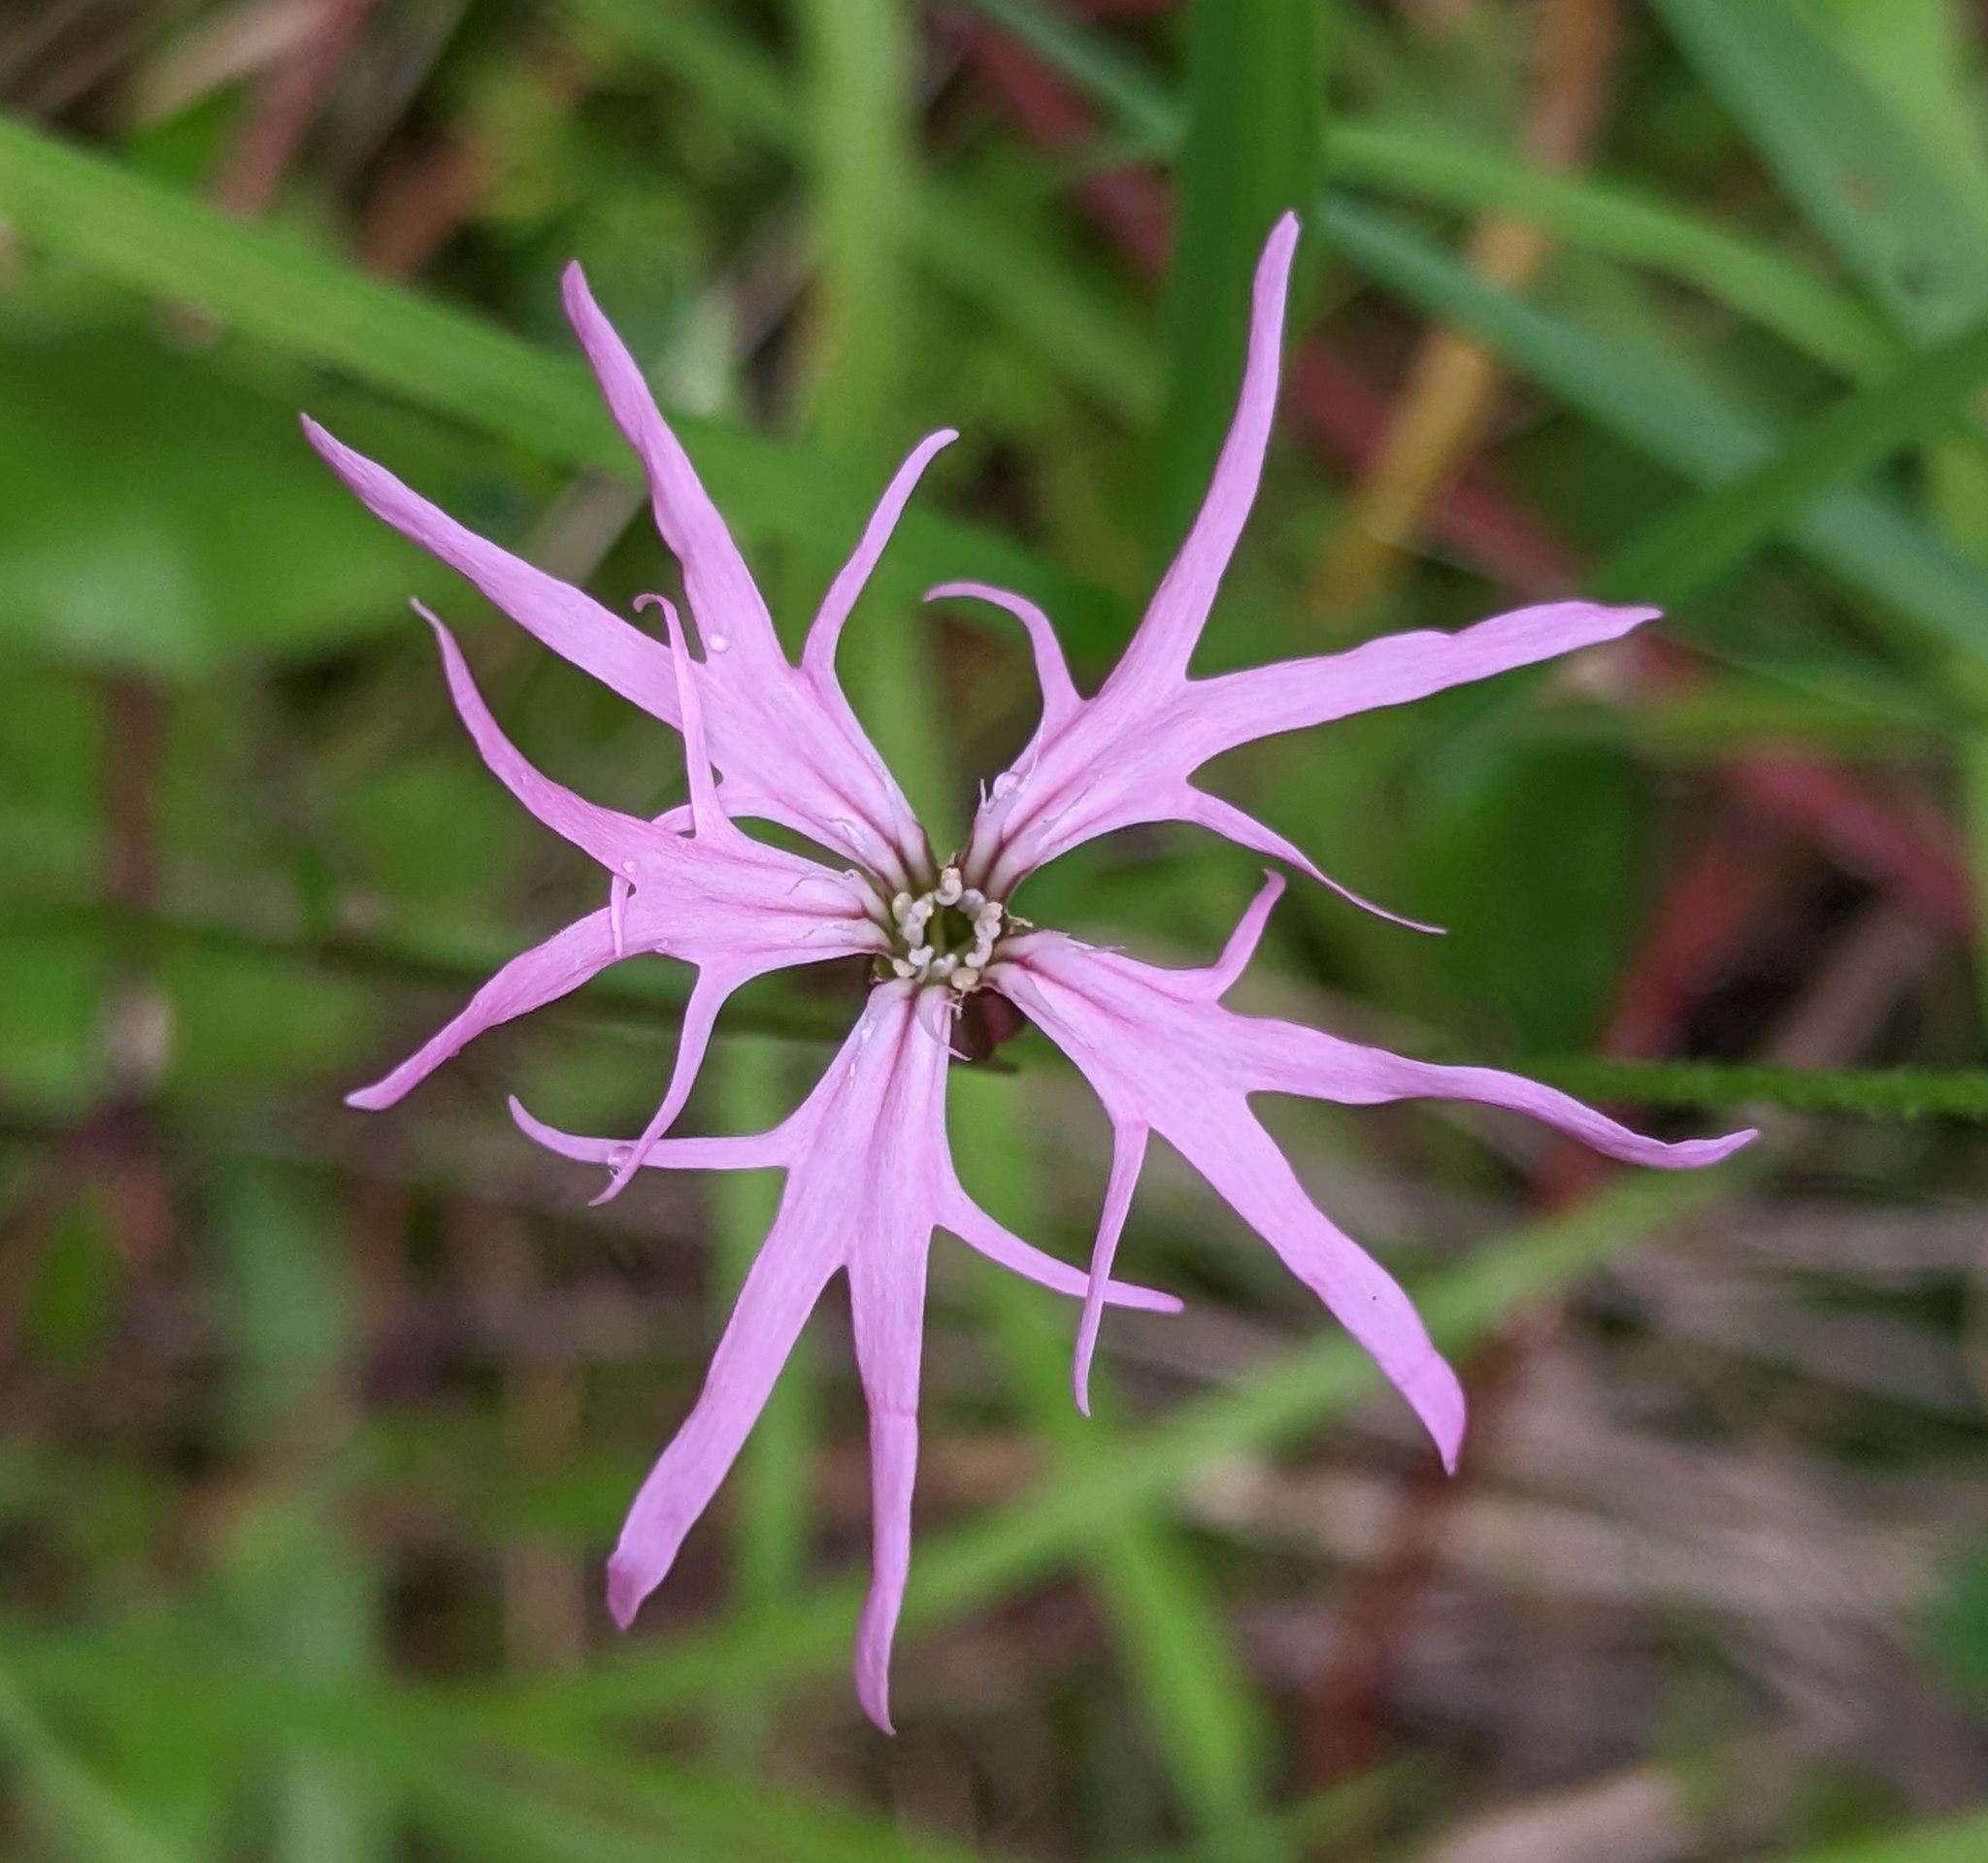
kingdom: Plantae
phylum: Tracheophyta
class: Magnoliopsida
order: Caryophyllales
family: Caryophyllaceae
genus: Silene
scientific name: Silene flos-cuculi
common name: Ragged-robin
